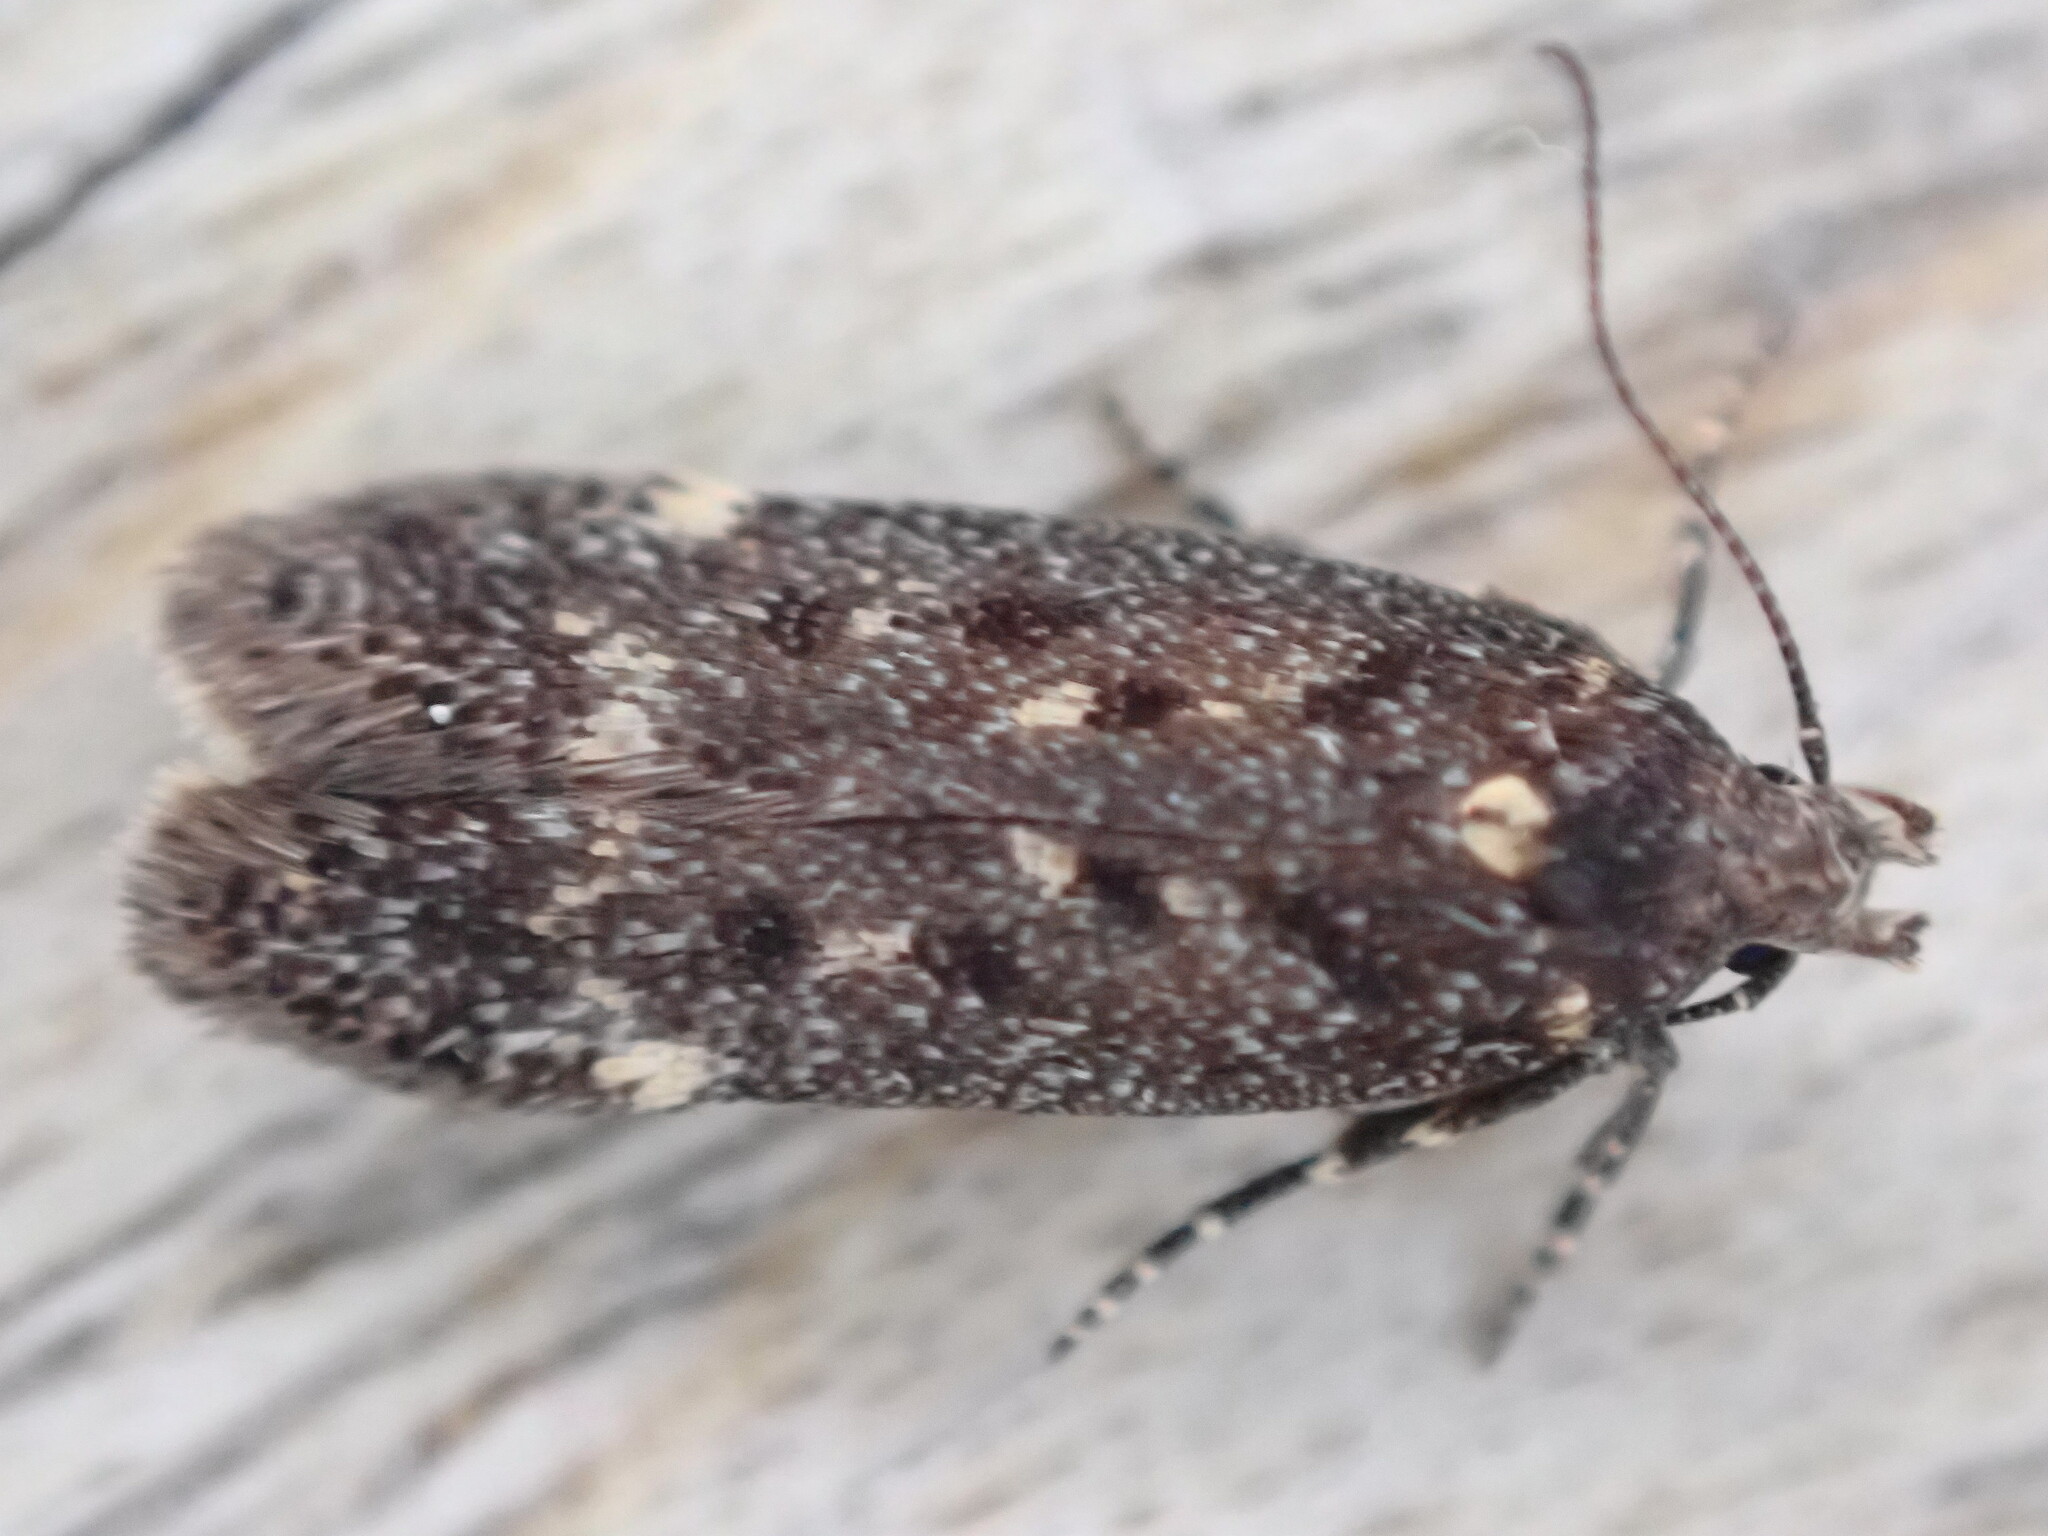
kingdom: Animalia
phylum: Arthropoda
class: Insecta
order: Lepidoptera
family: Gelechiidae
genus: Bryotropha
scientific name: Bryotropha affinis
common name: Dark groundling
